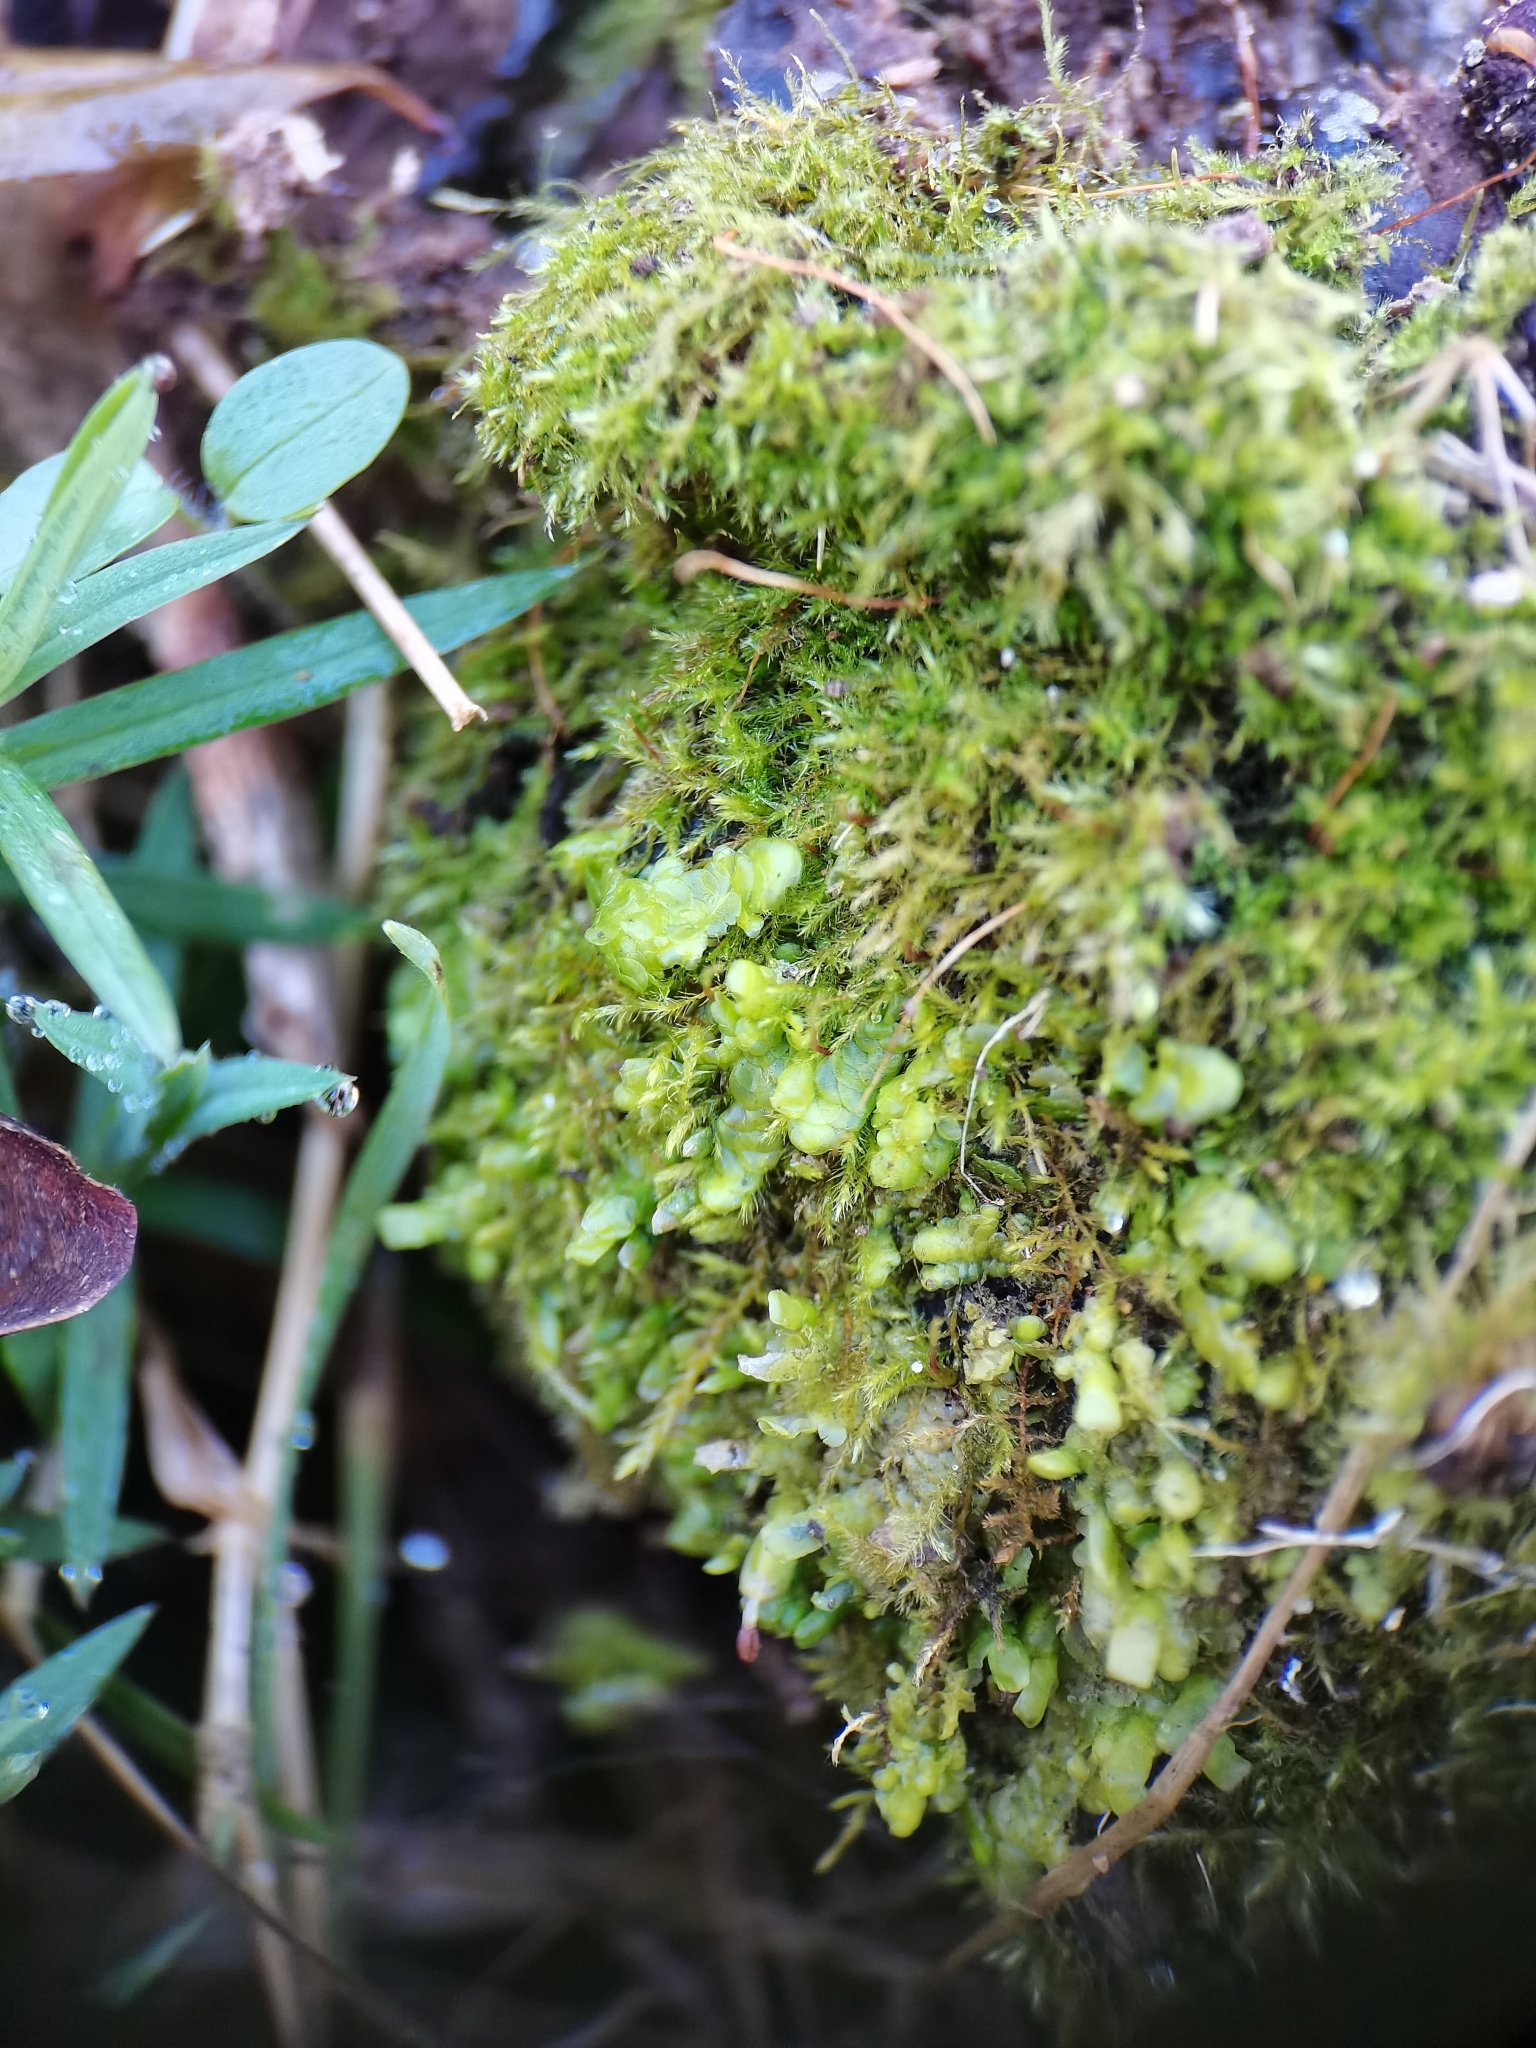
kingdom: Plantae
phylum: Marchantiophyta
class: Jungermanniopsida
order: Porellales
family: Radulaceae
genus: Radula
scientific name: Radula complanata
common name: Flat-leaved scalewort
